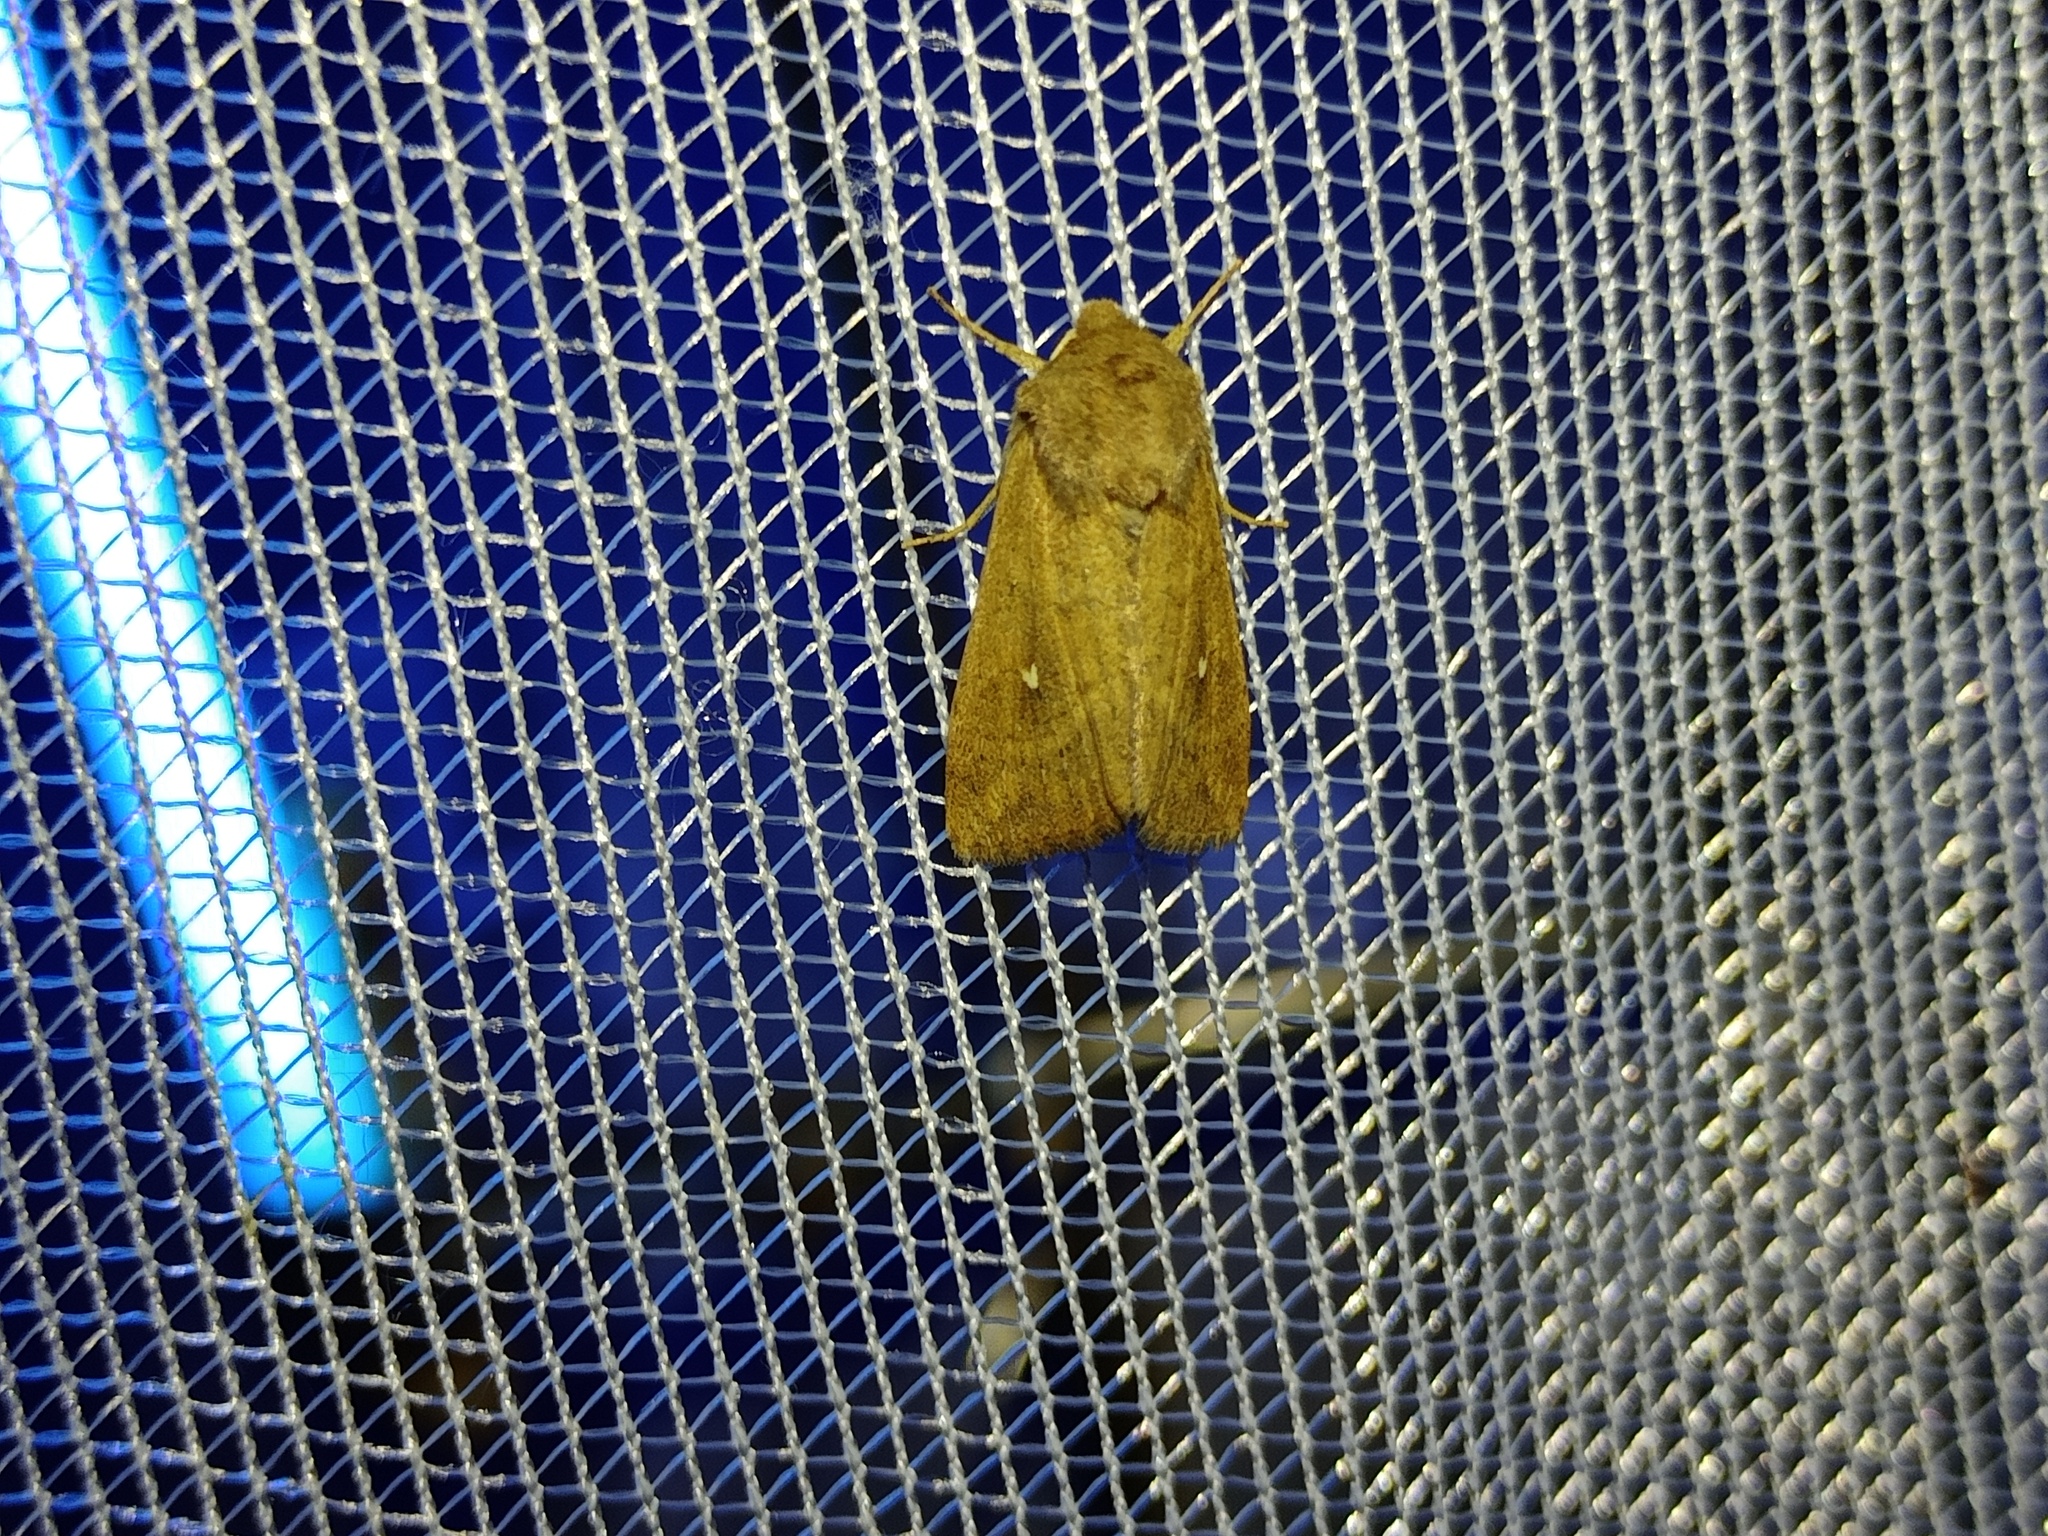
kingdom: Animalia
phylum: Arthropoda
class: Insecta
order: Lepidoptera
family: Noctuidae
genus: Mythimna
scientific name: Mythimna albipuncta
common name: White-point
